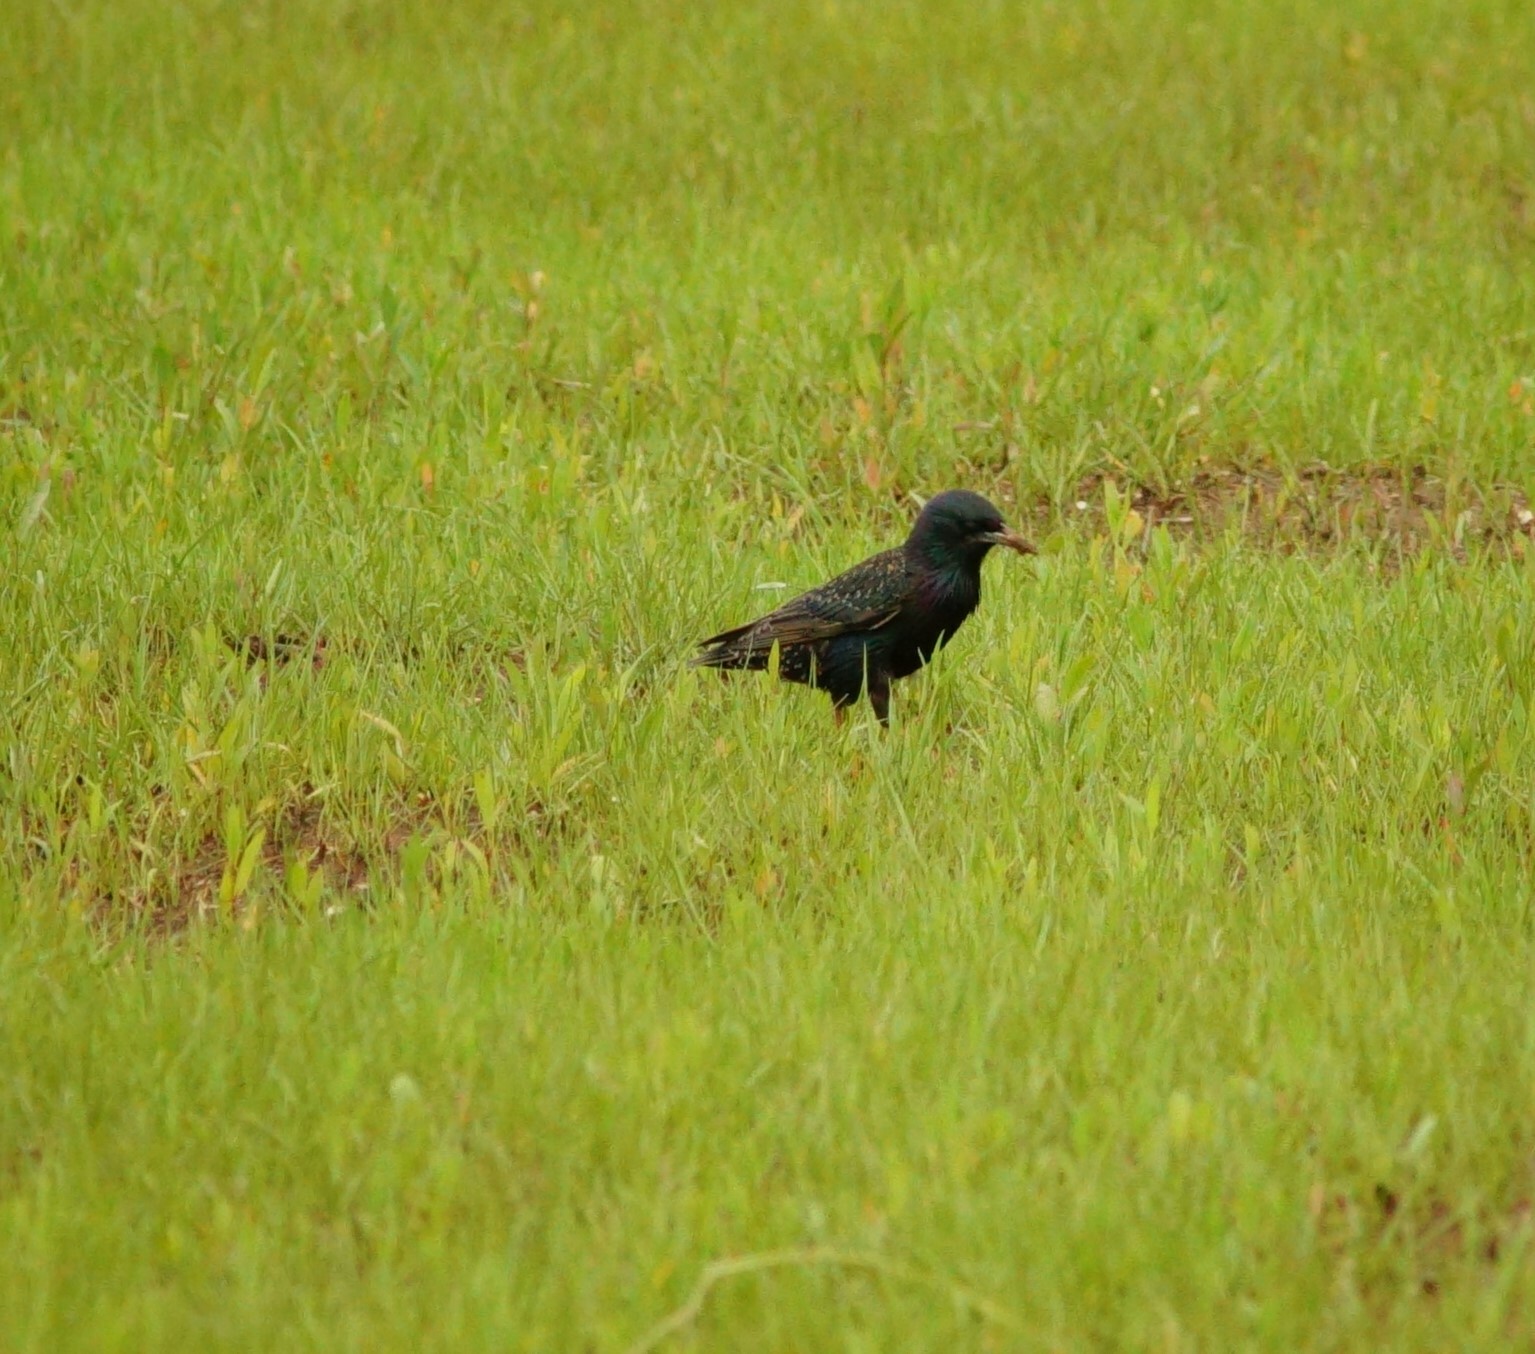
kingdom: Animalia
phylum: Chordata
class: Aves
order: Passeriformes
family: Sturnidae
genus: Sturnus
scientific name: Sturnus vulgaris
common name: Common starling
